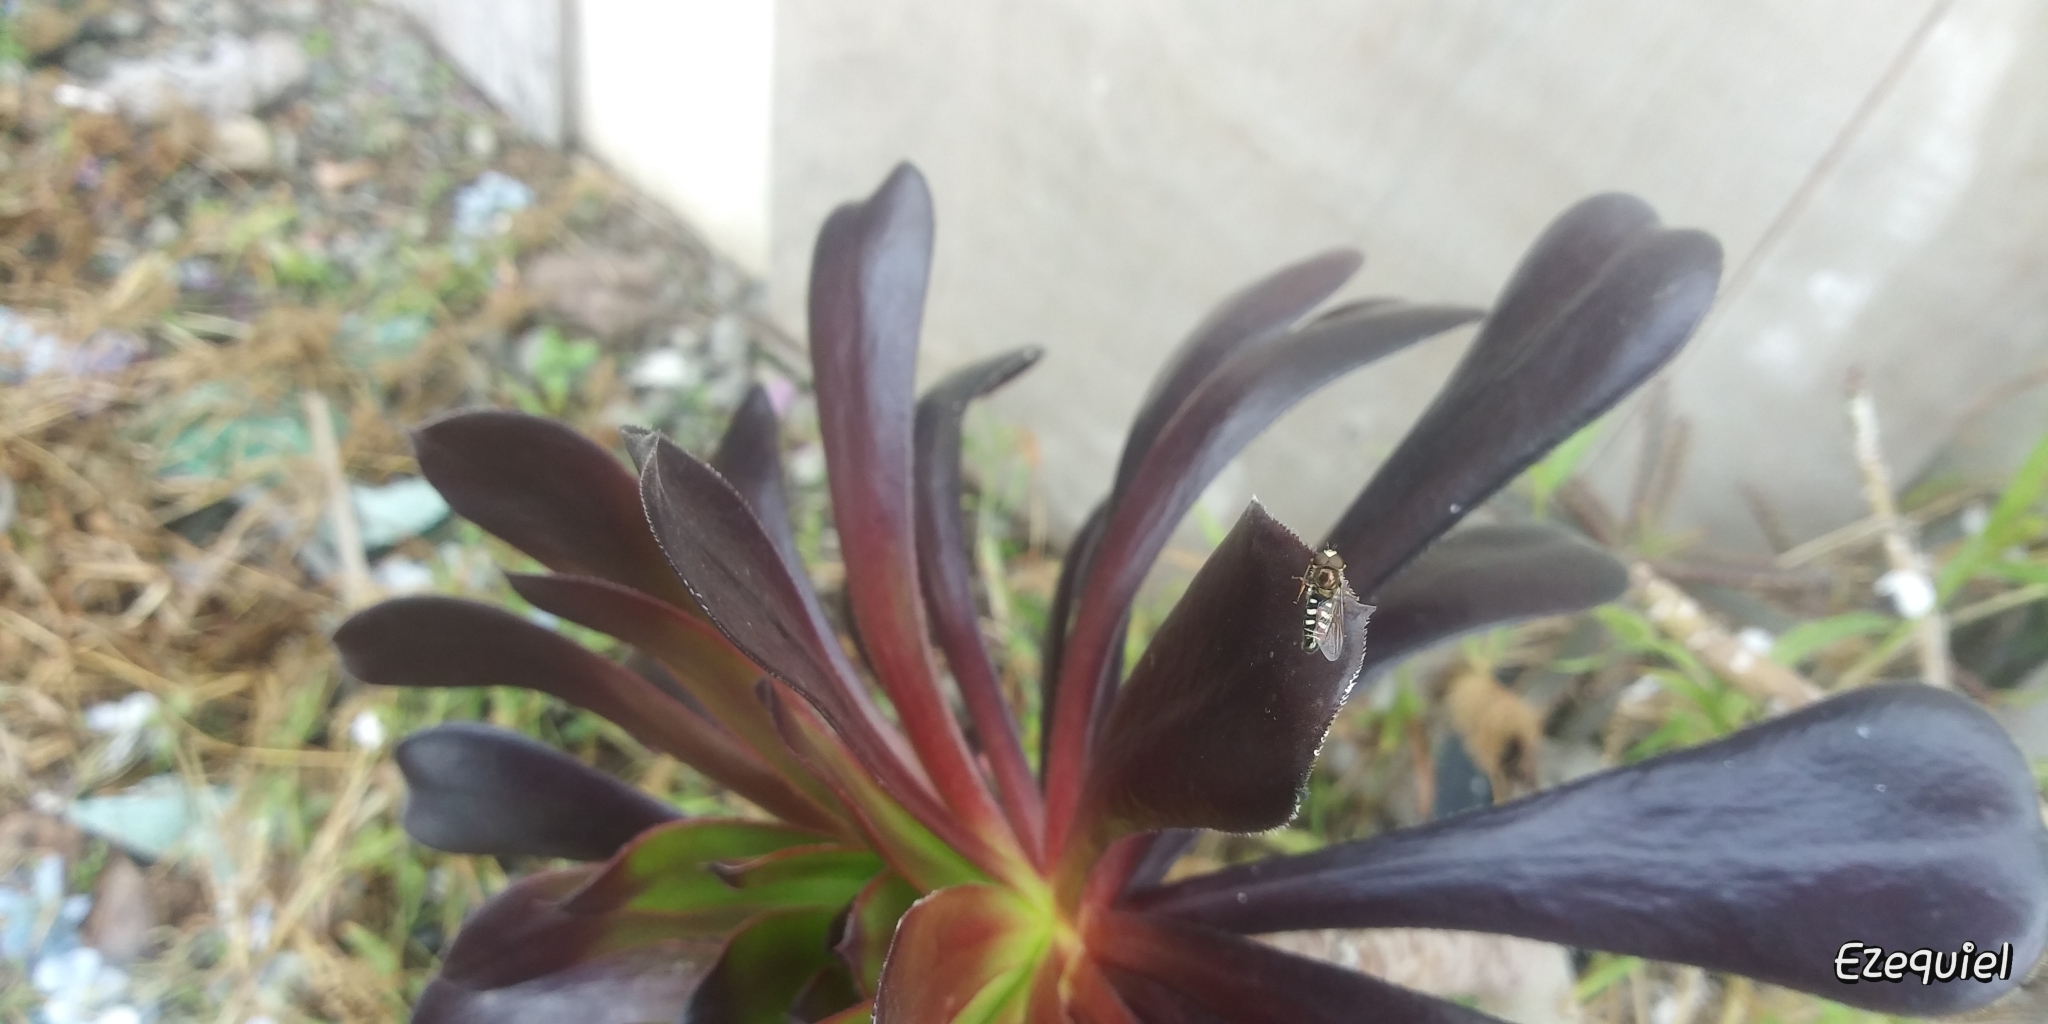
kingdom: Animalia
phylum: Arthropoda
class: Insecta
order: Diptera
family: Syrphidae
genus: Eupeodes
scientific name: Eupeodes volucris
